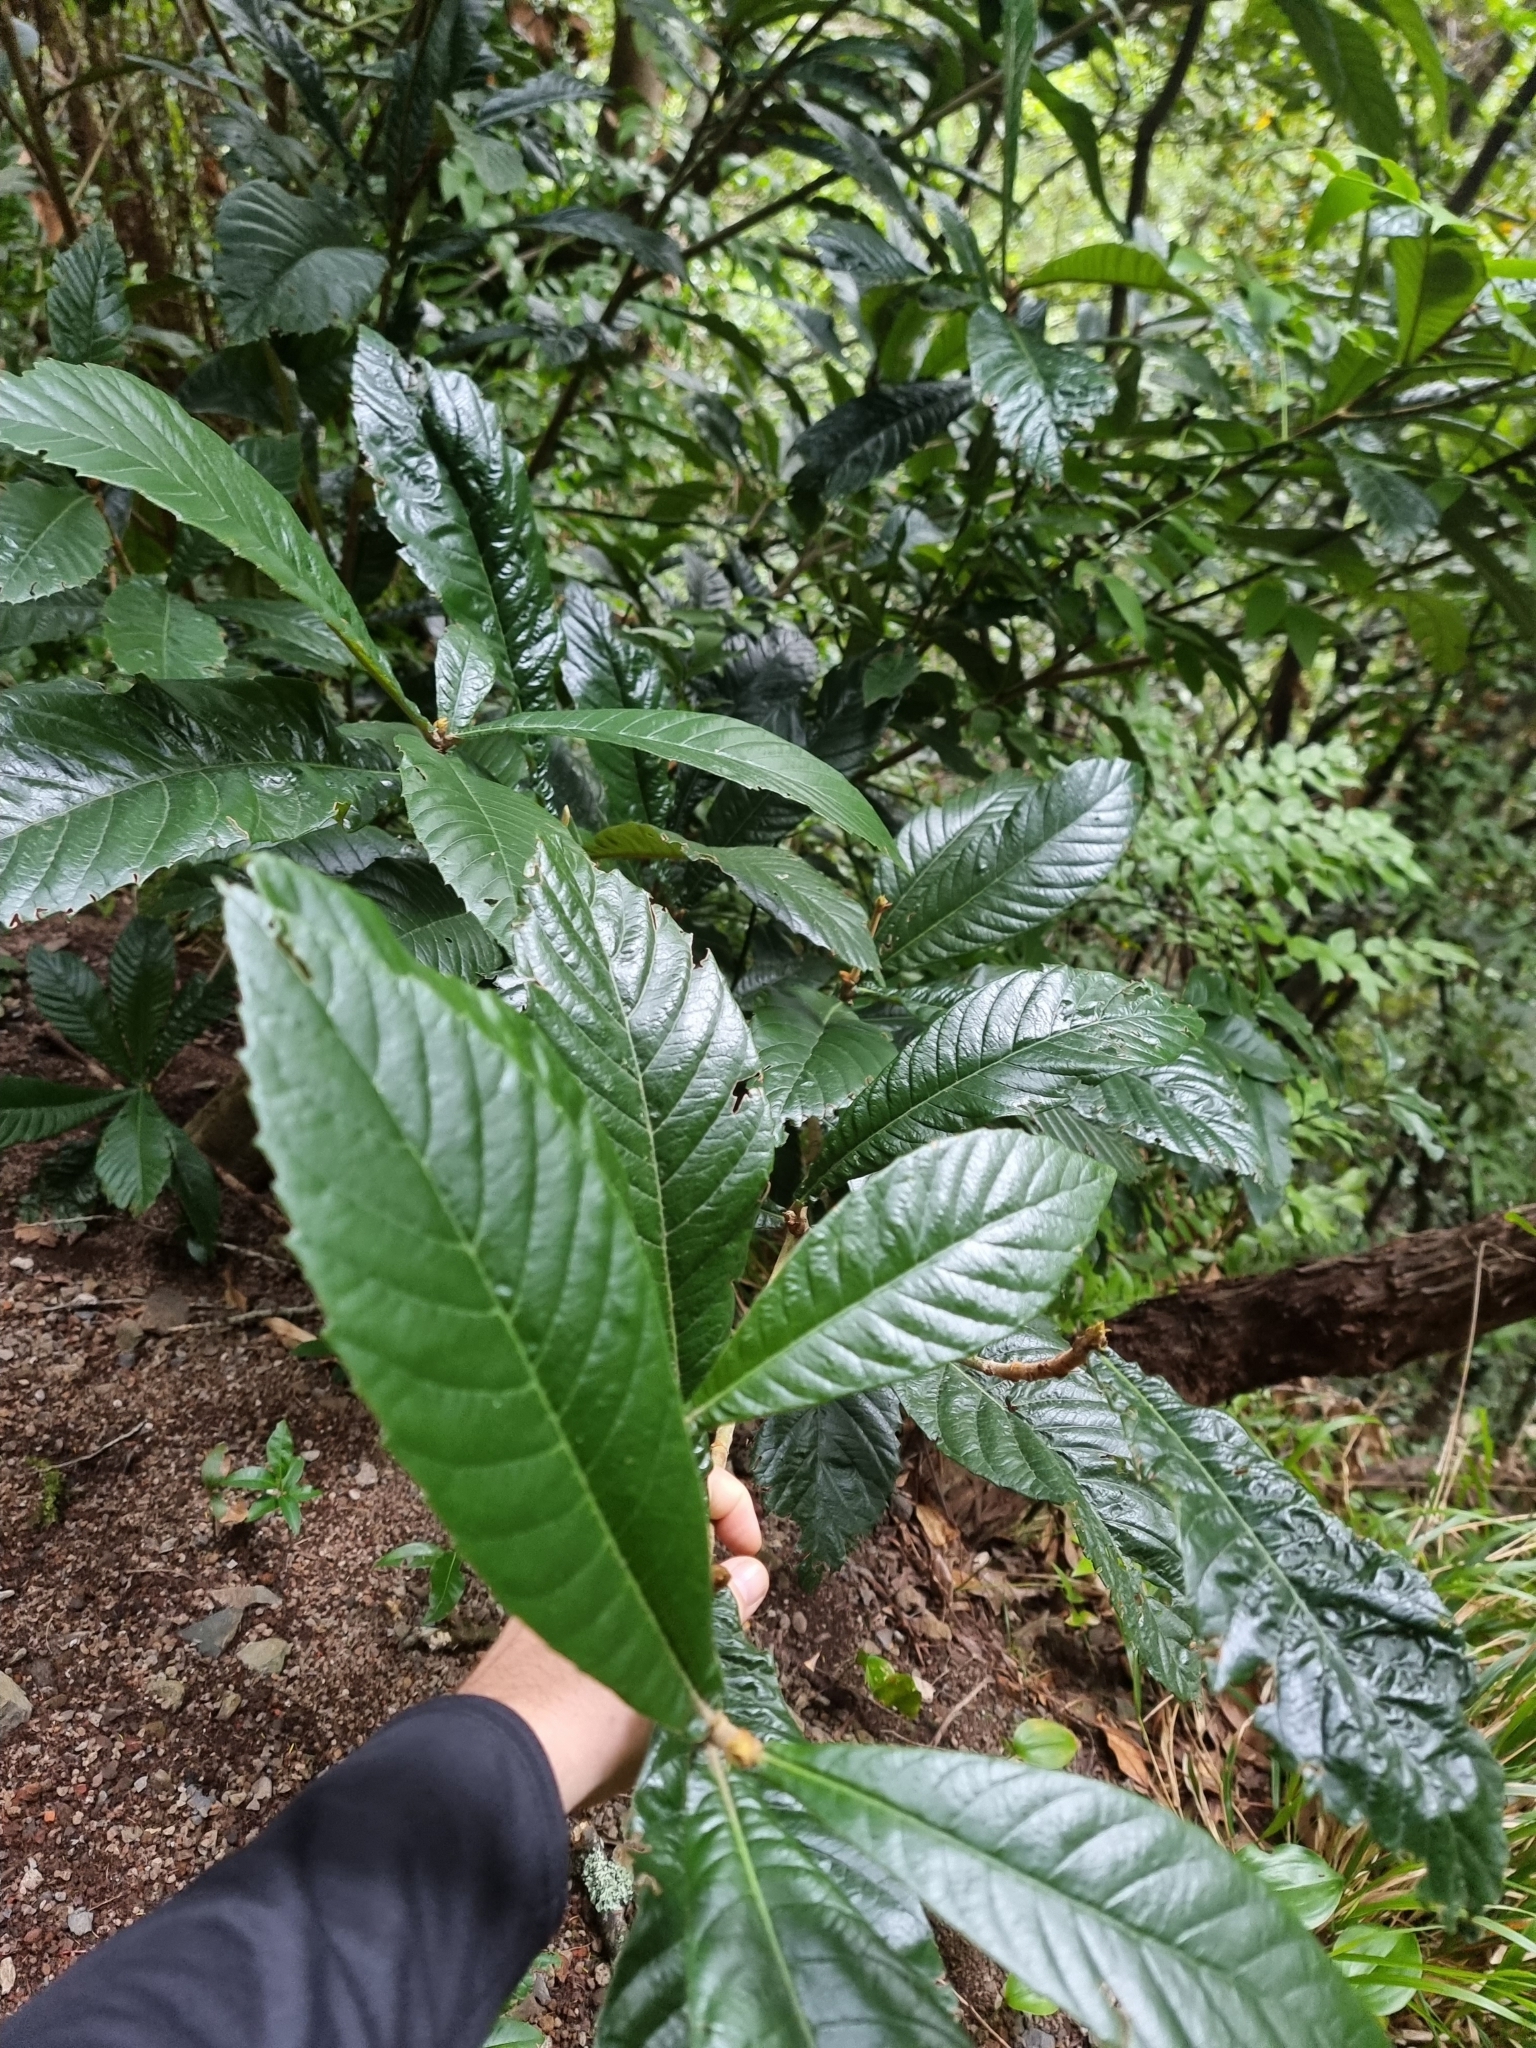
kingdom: Plantae
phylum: Tracheophyta
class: Magnoliopsida
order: Rosales
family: Rosaceae
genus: Rhaphiolepis
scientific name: Rhaphiolepis bibas
